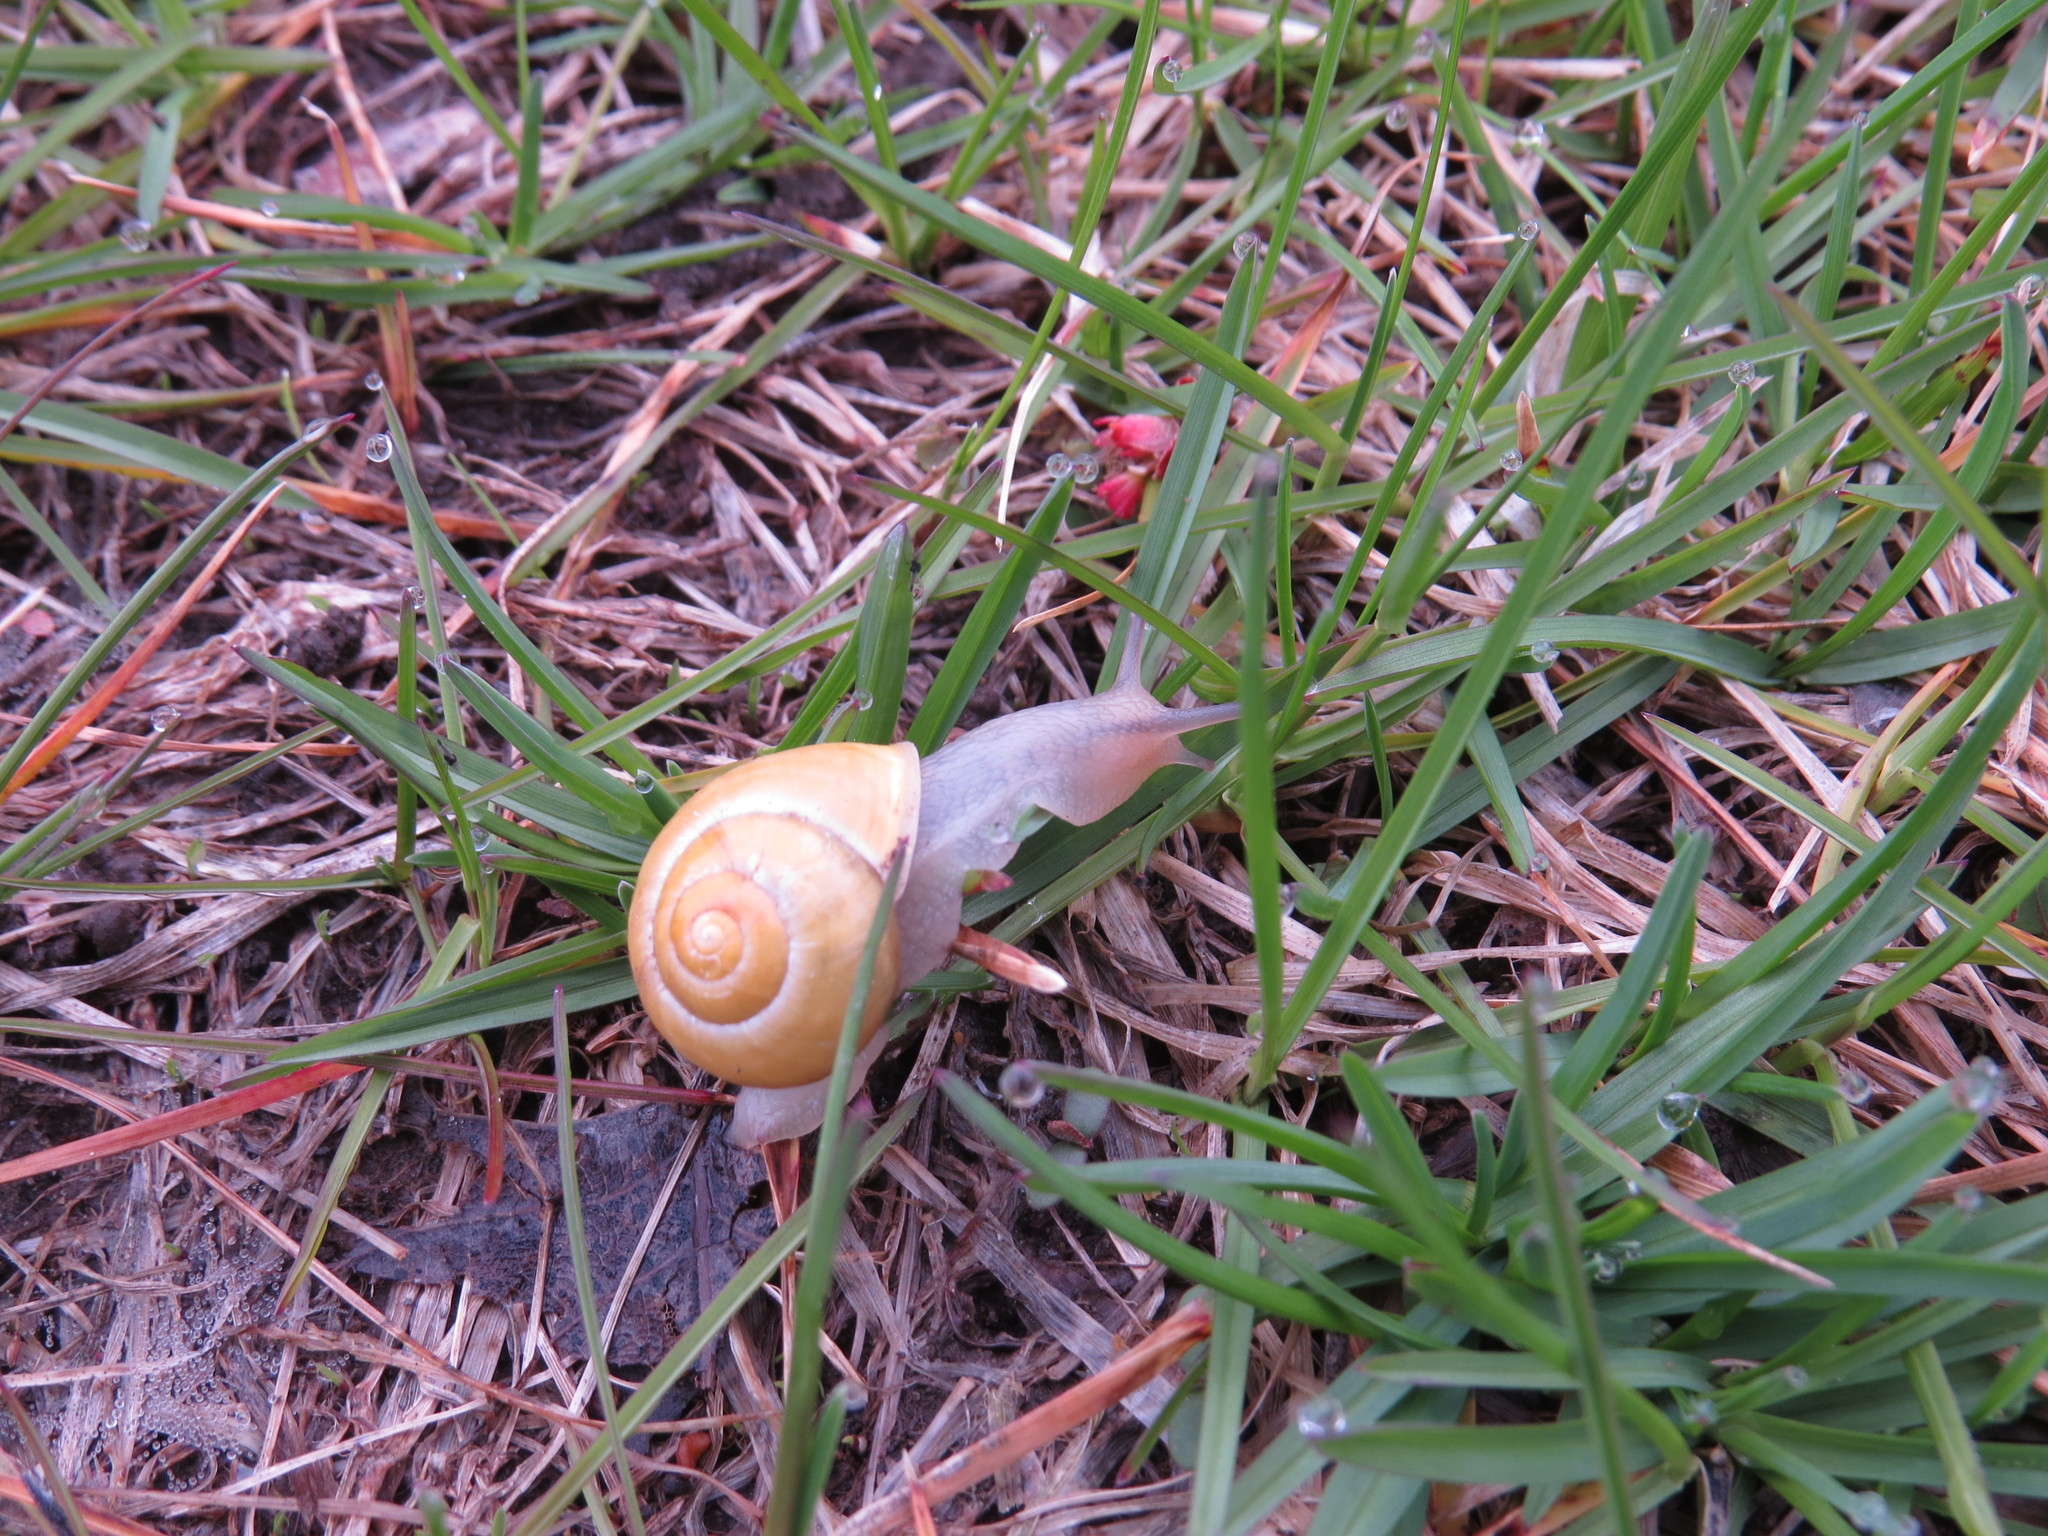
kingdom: Animalia
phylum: Mollusca
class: Gastropoda
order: Stylommatophora
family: Helicidae
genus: Cepaea
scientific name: Cepaea hortensis
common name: White-lip gardensnail
